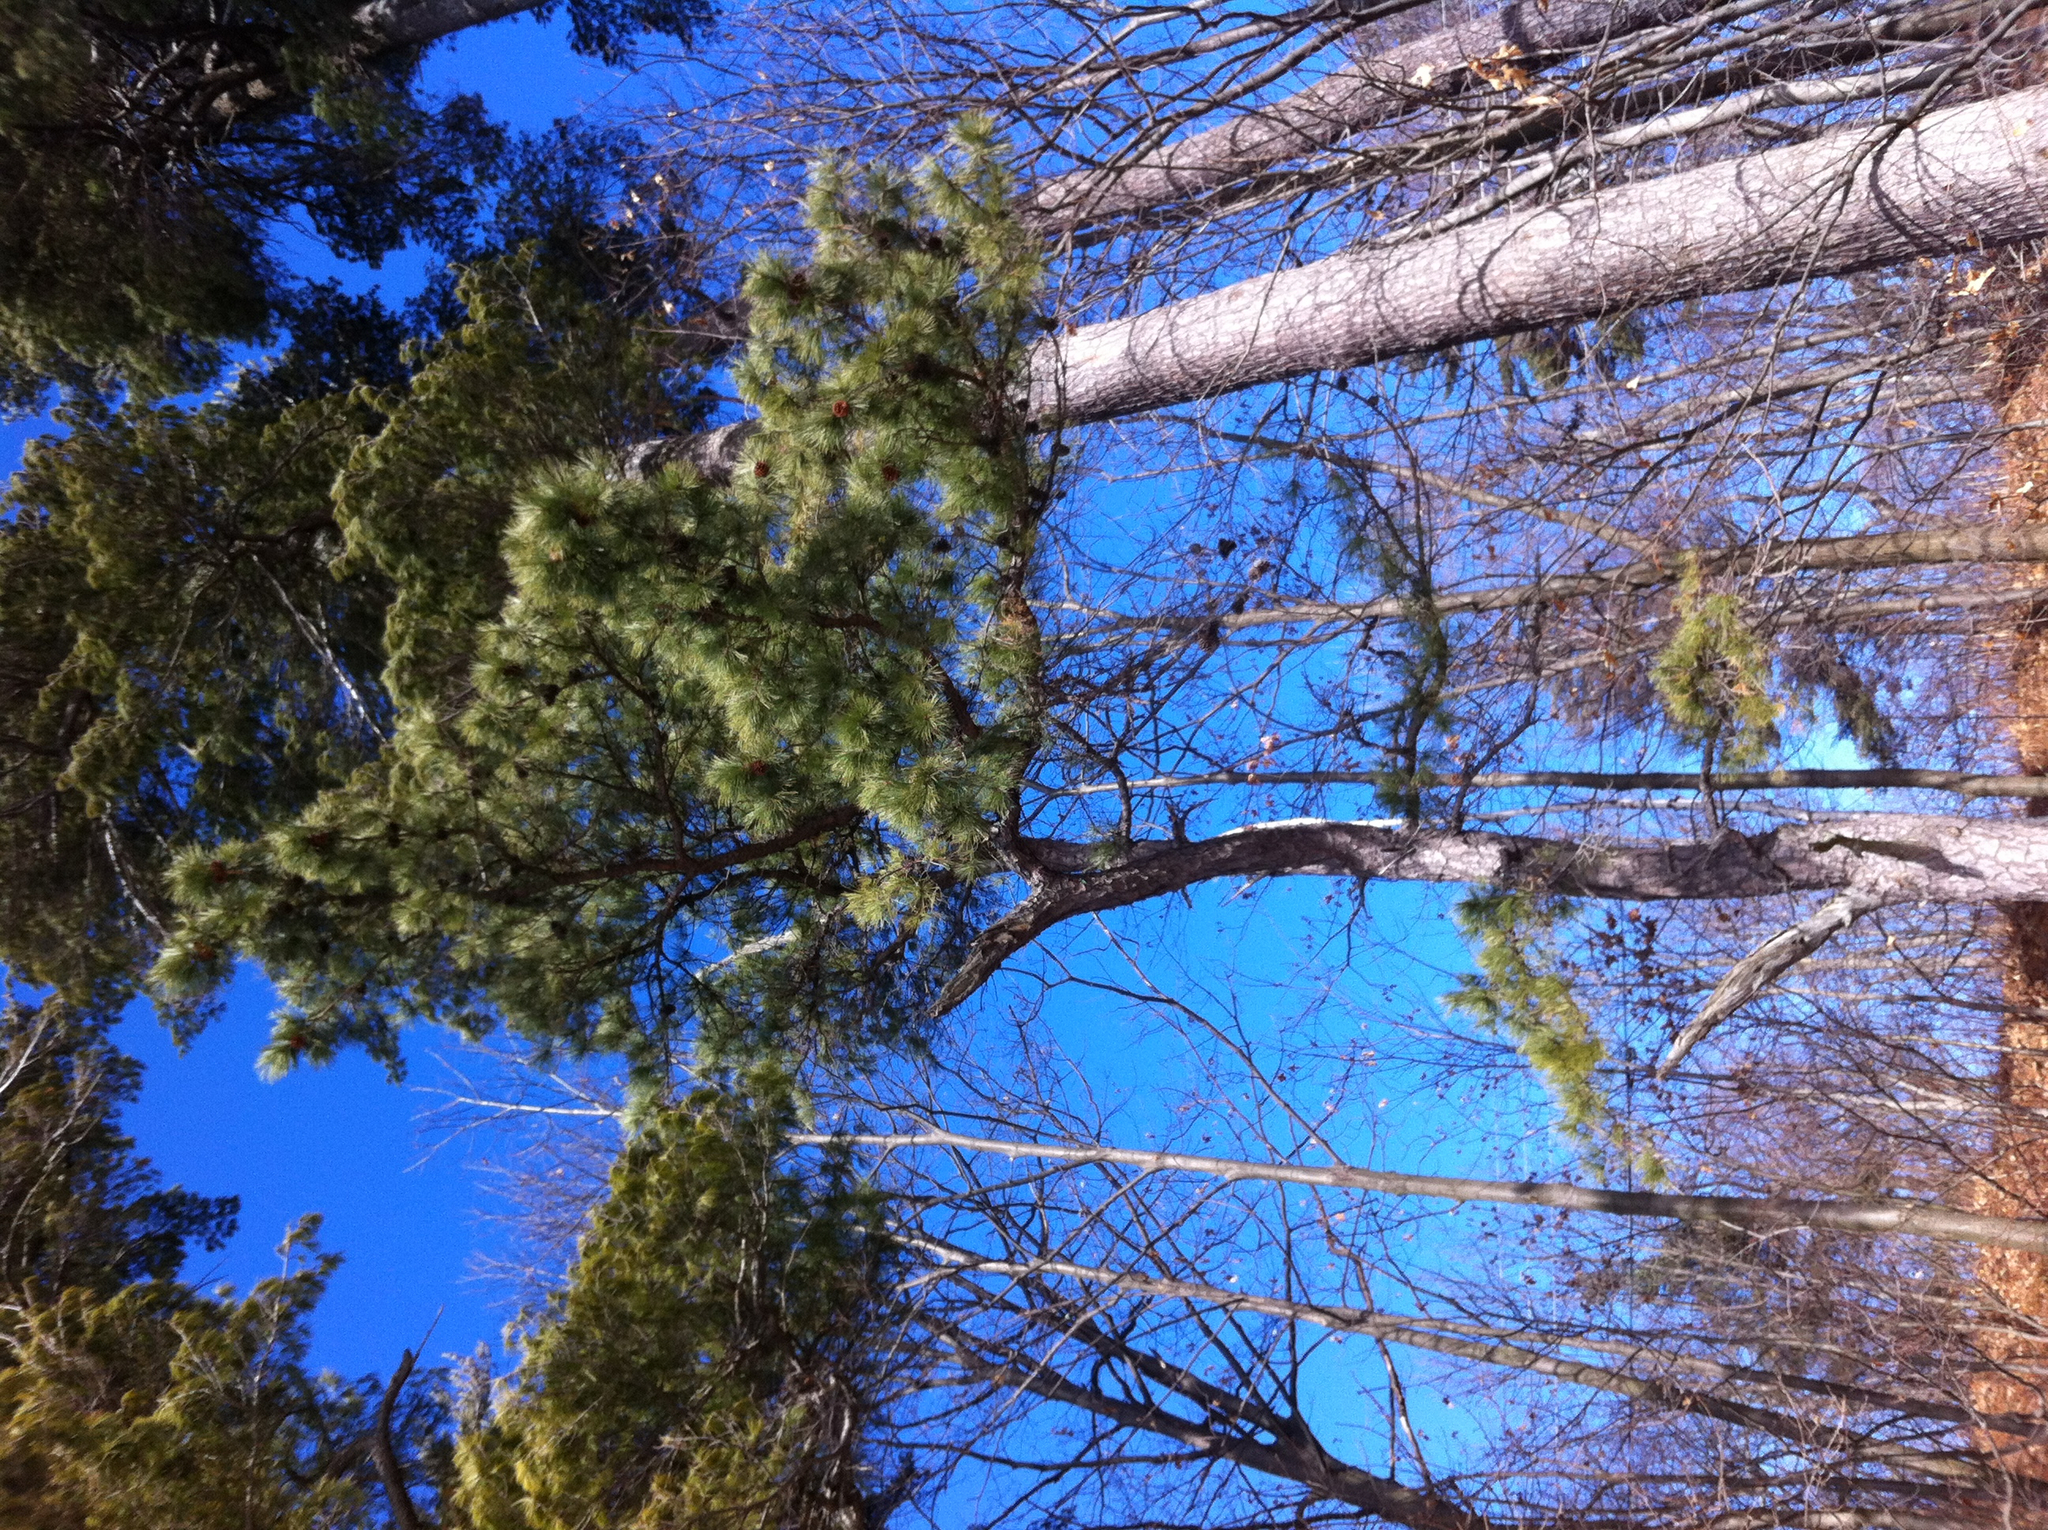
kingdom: Plantae
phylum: Tracheophyta
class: Pinopsida
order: Pinales
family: Pinaceae
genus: Pinus
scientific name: Pinus resinosa
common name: Norway pine
